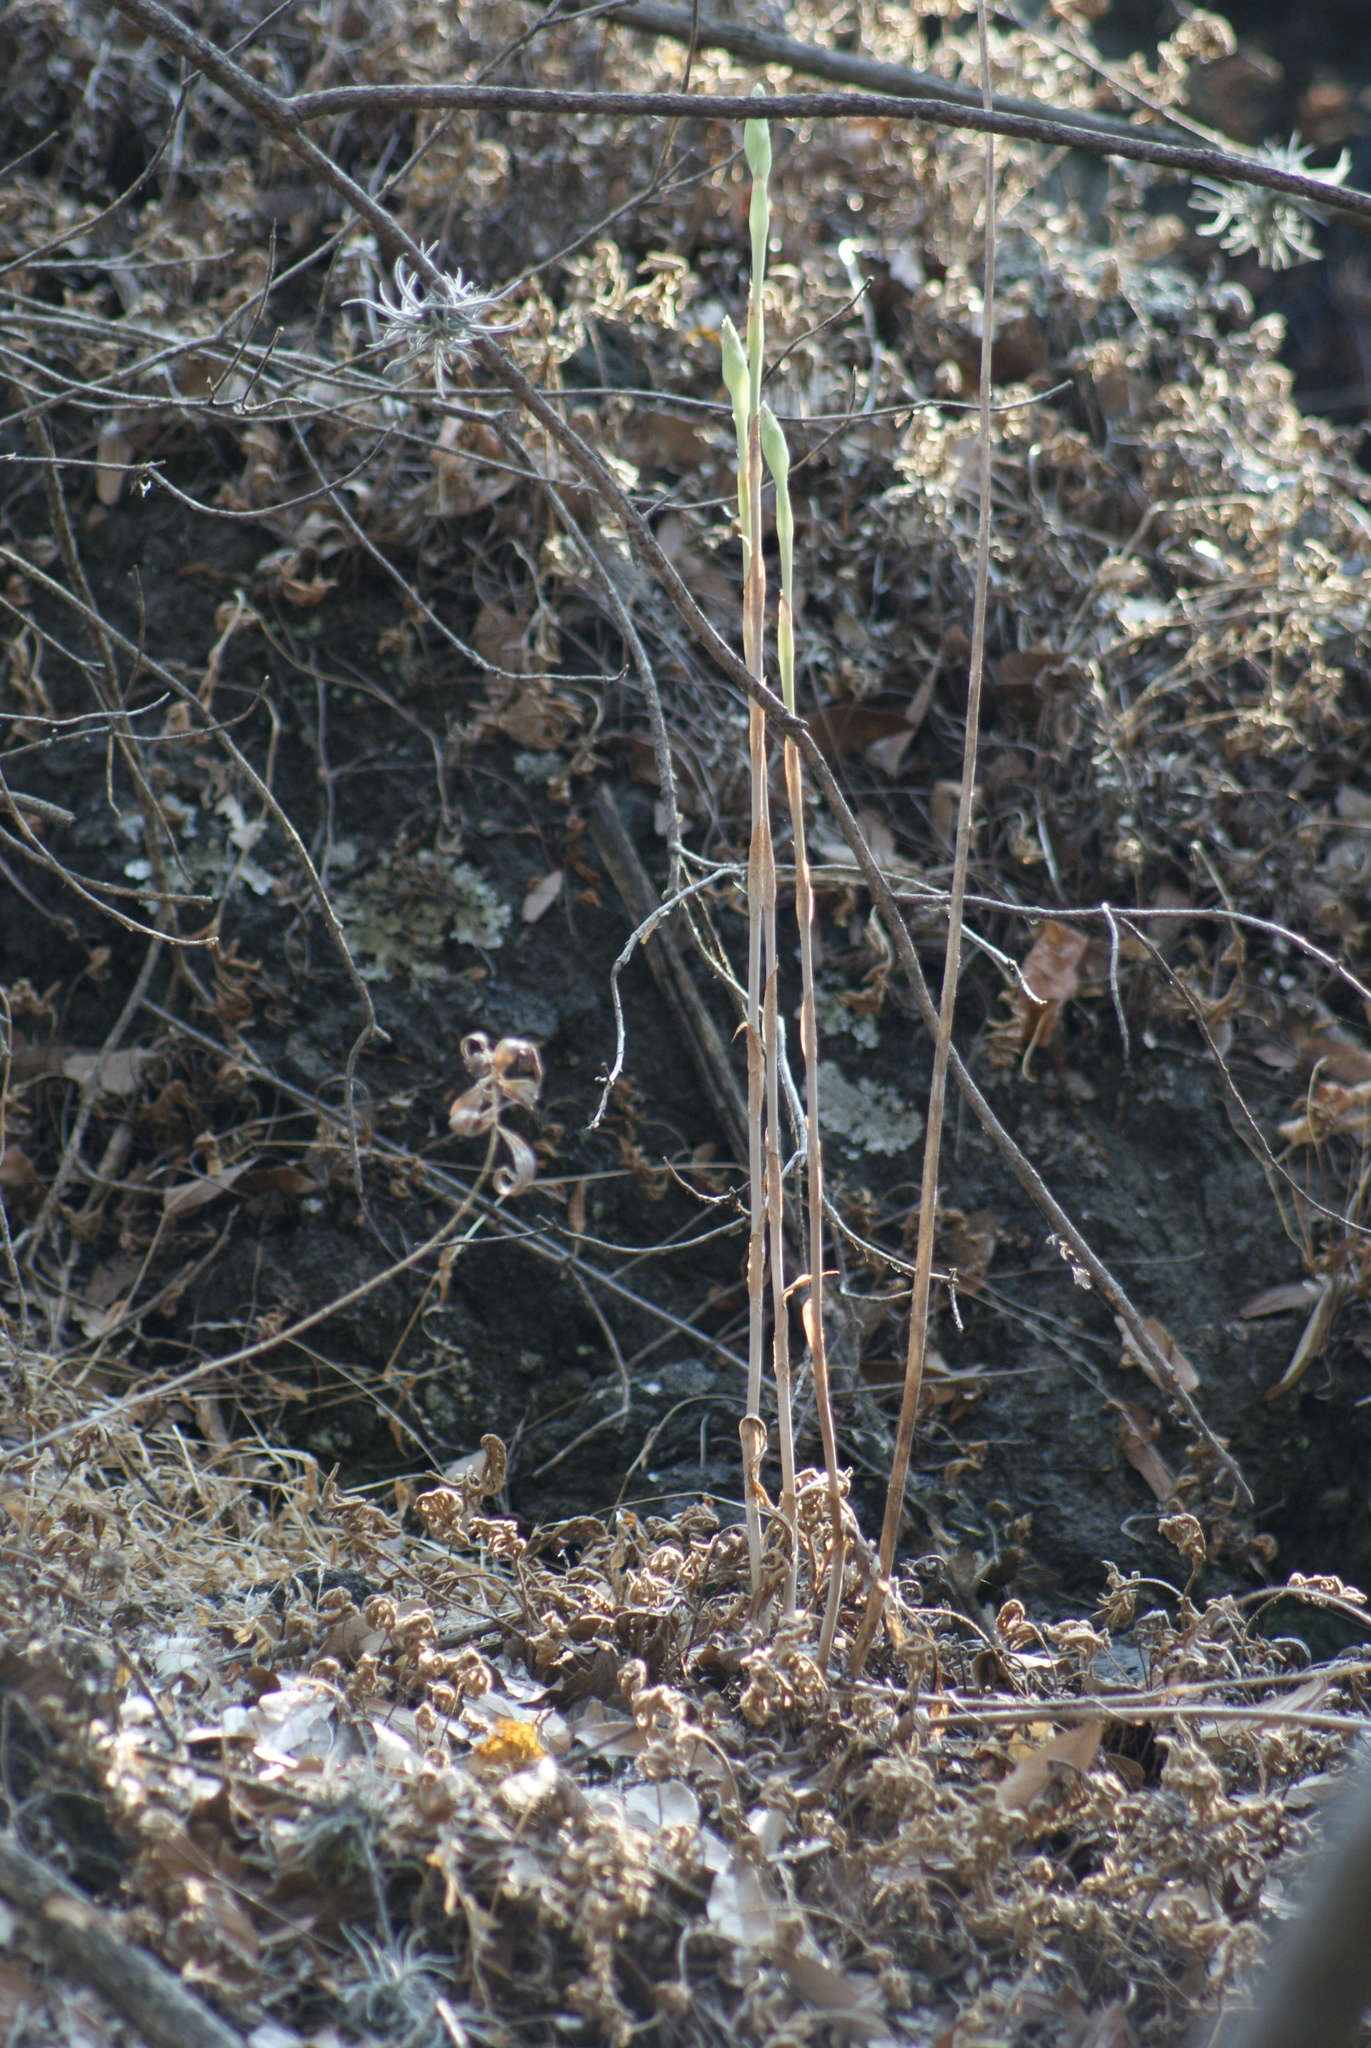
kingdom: Plantae
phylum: Tracheophyta
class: Liliopsida
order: Asparagales
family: Orchidaceae
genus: Aulosepalum
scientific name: Aulosepalum pyramidale
